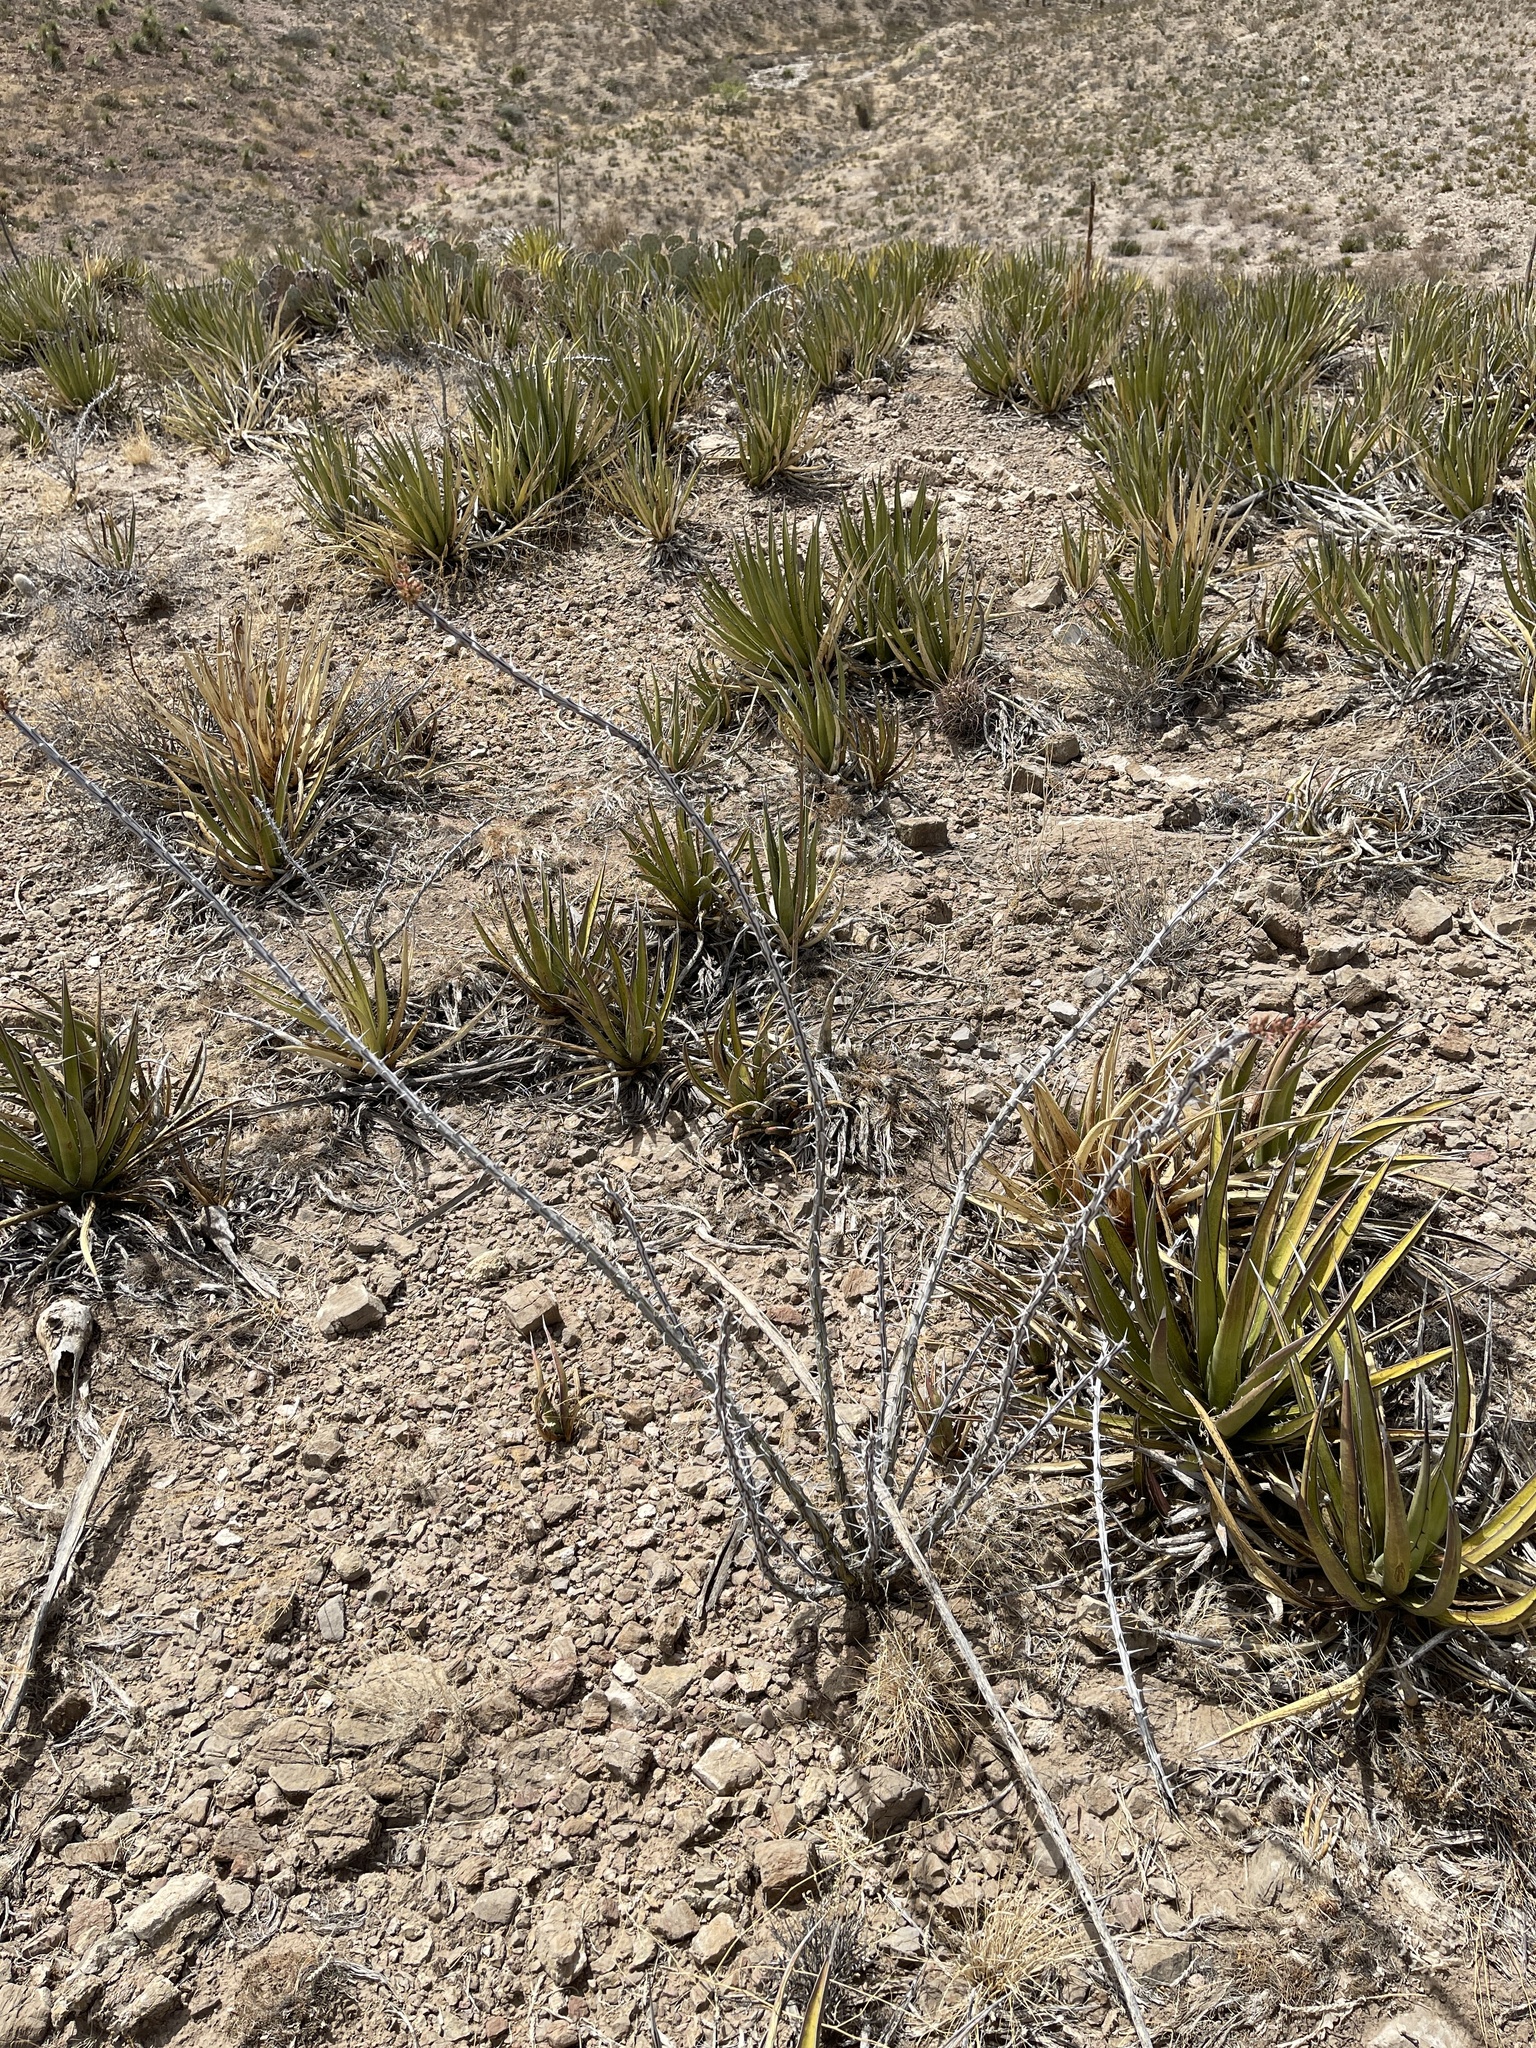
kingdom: Plantae
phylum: Tracheophyta
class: Magnoliopsida
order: Ericales
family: Fouquieriaceae
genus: Fouquieria
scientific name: Fouquieria splendens
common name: Vine-cactus
